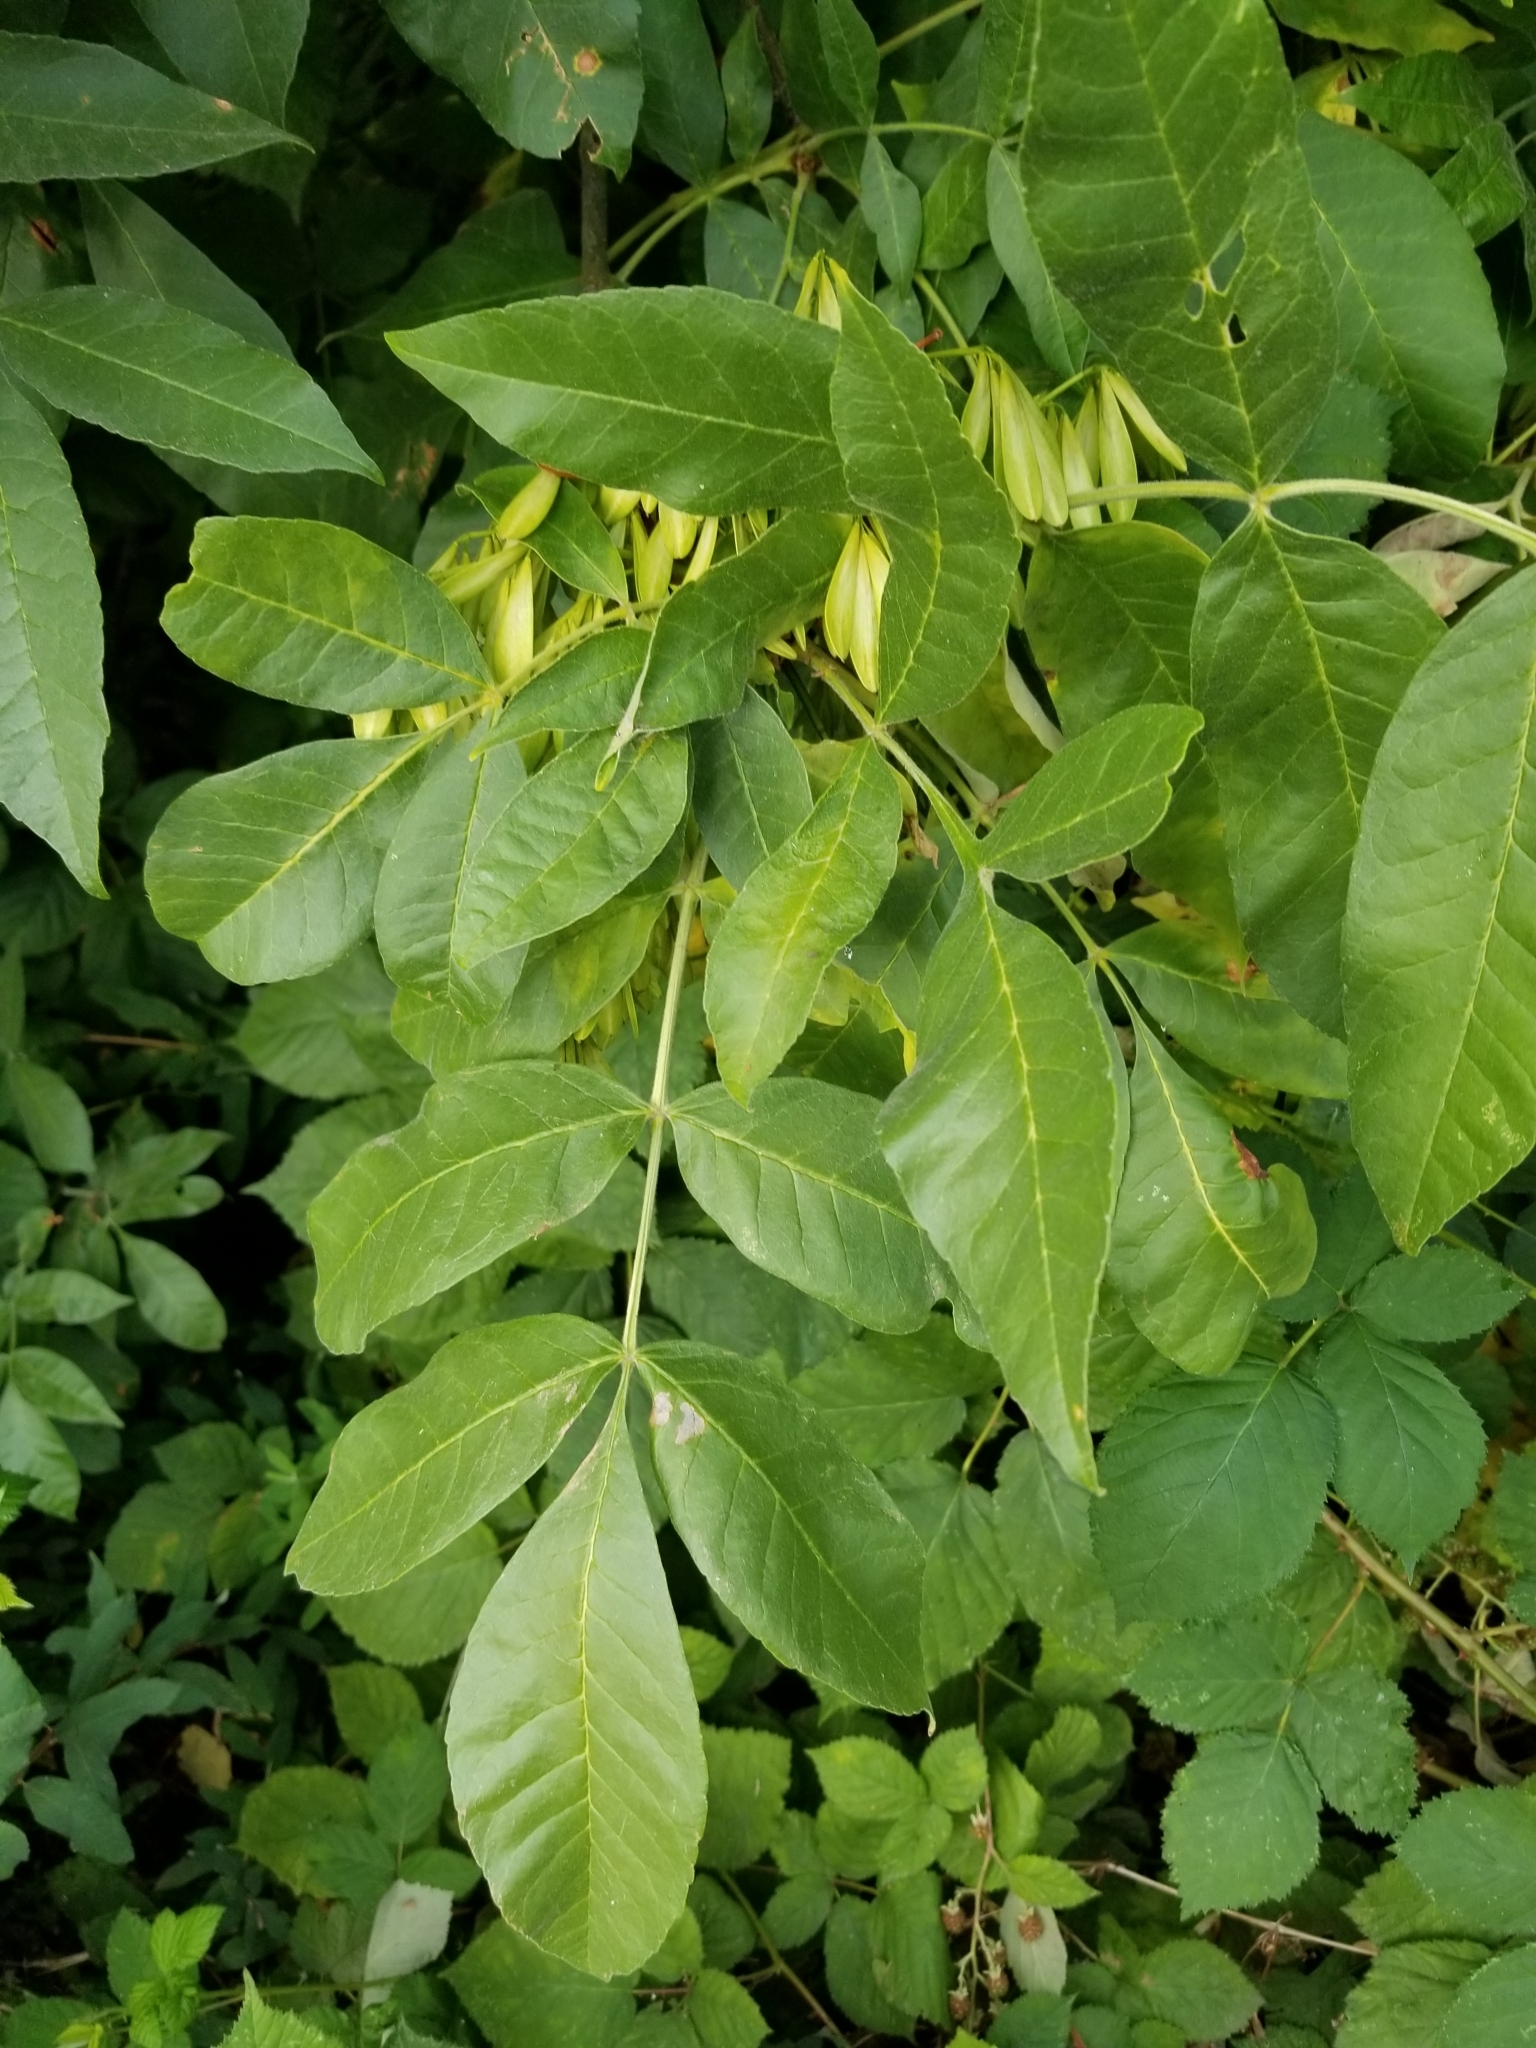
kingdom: Plantae
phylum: Tracheophyta
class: Magnoliopsida
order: Lamiales
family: Oleaceae
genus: Fraxinus
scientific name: Fraxinus latifolia
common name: Oregon ash
